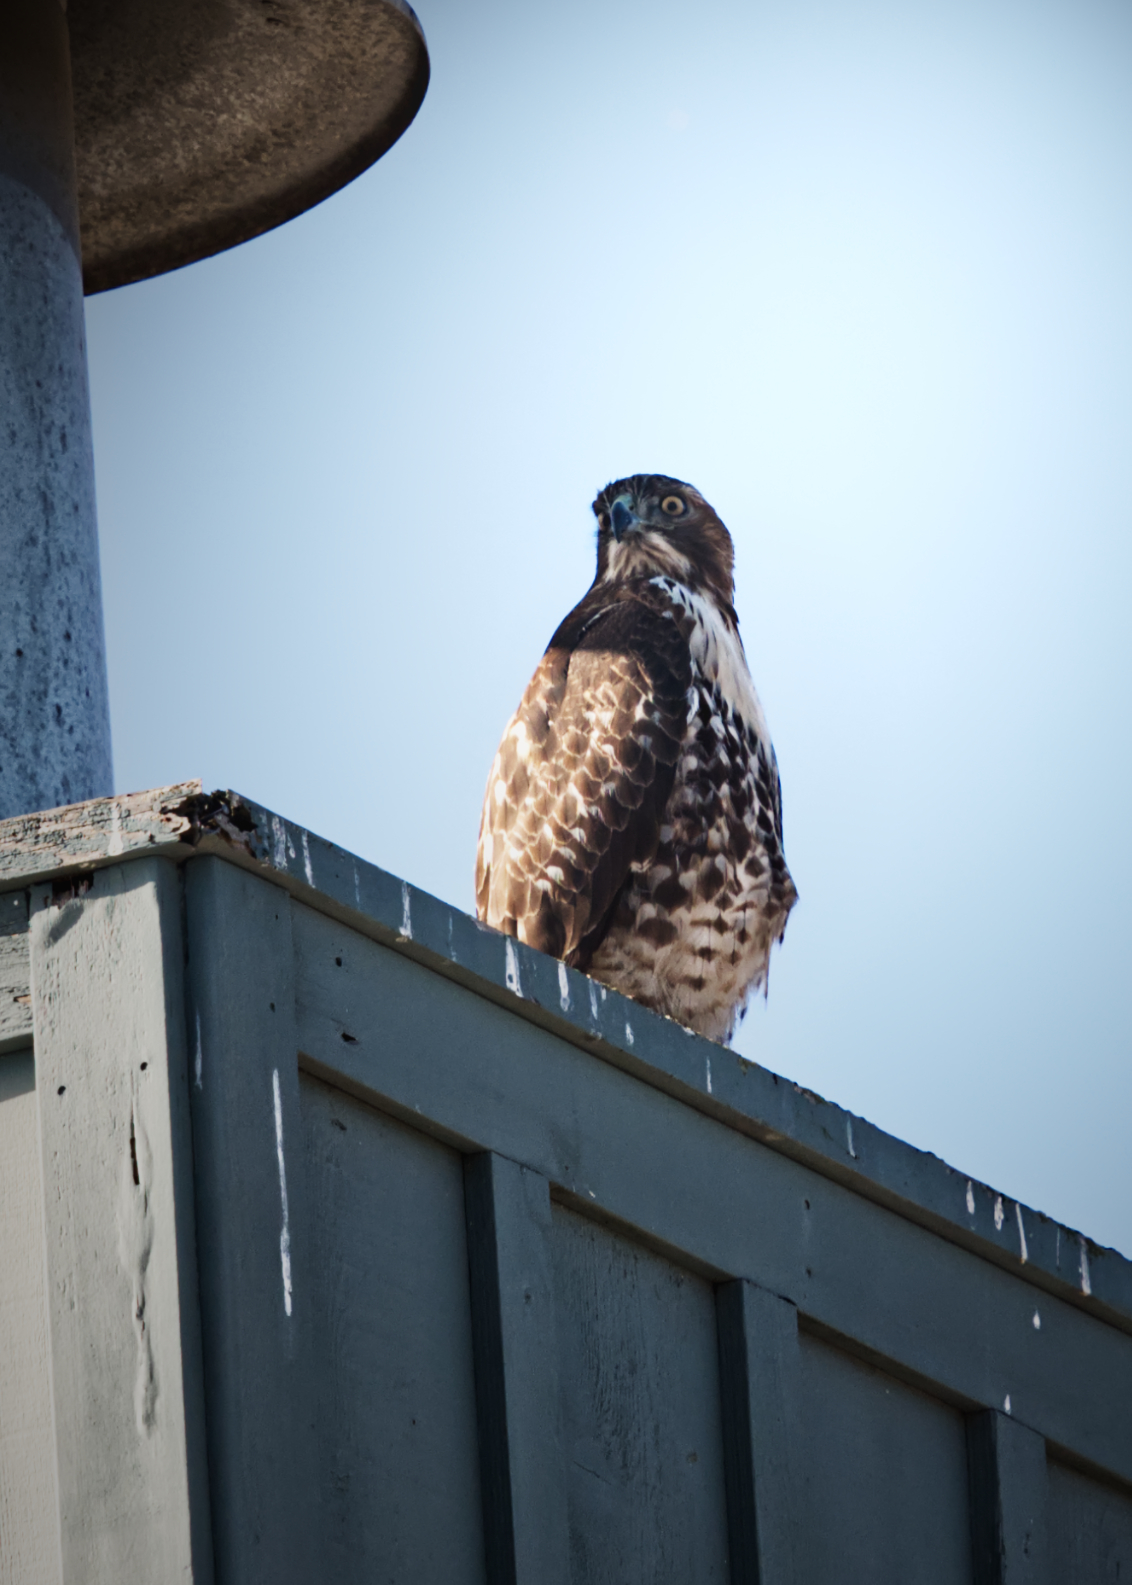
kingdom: Animalia
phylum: Chordata
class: Aves
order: Accipitriformes
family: Accipitridae
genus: Buteo
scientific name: Buteo jamaicensis
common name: Red-tailed hawk
